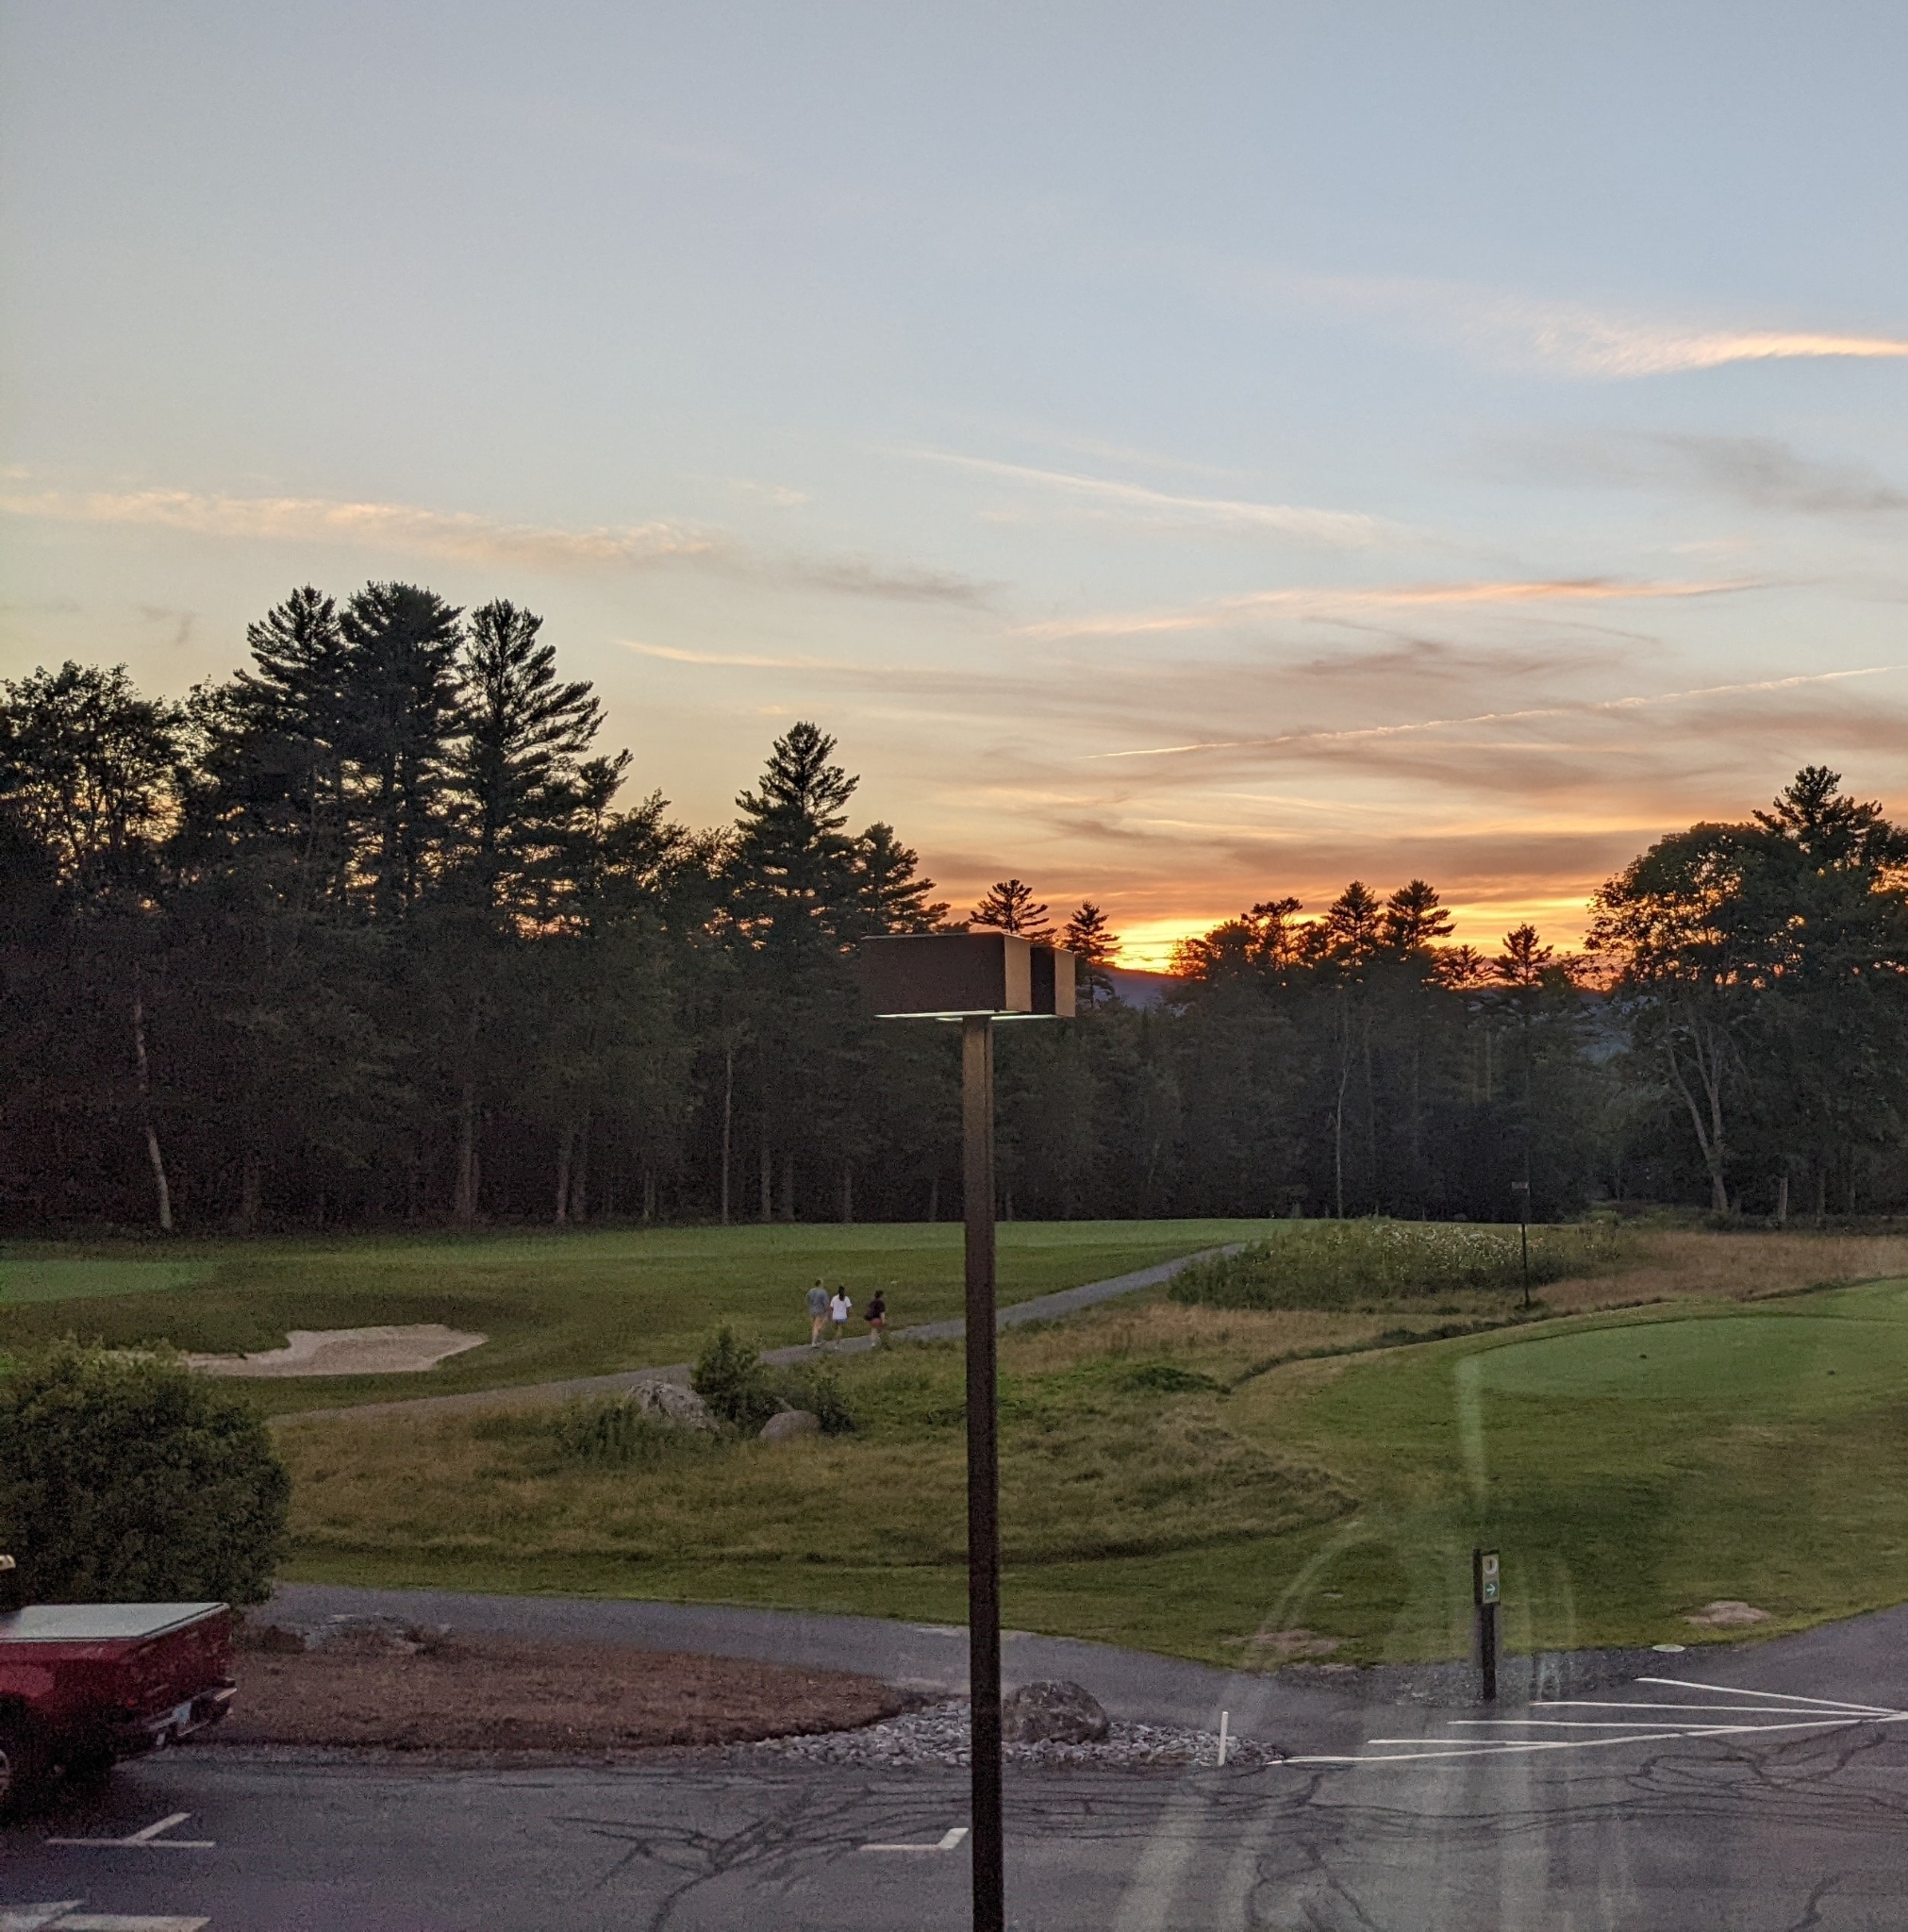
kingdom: Plantae
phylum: Tracheophyta
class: Pinopsida
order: Pinales
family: Pinaceae
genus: Pinus
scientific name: Pinus strobus
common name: Weymouth pine
